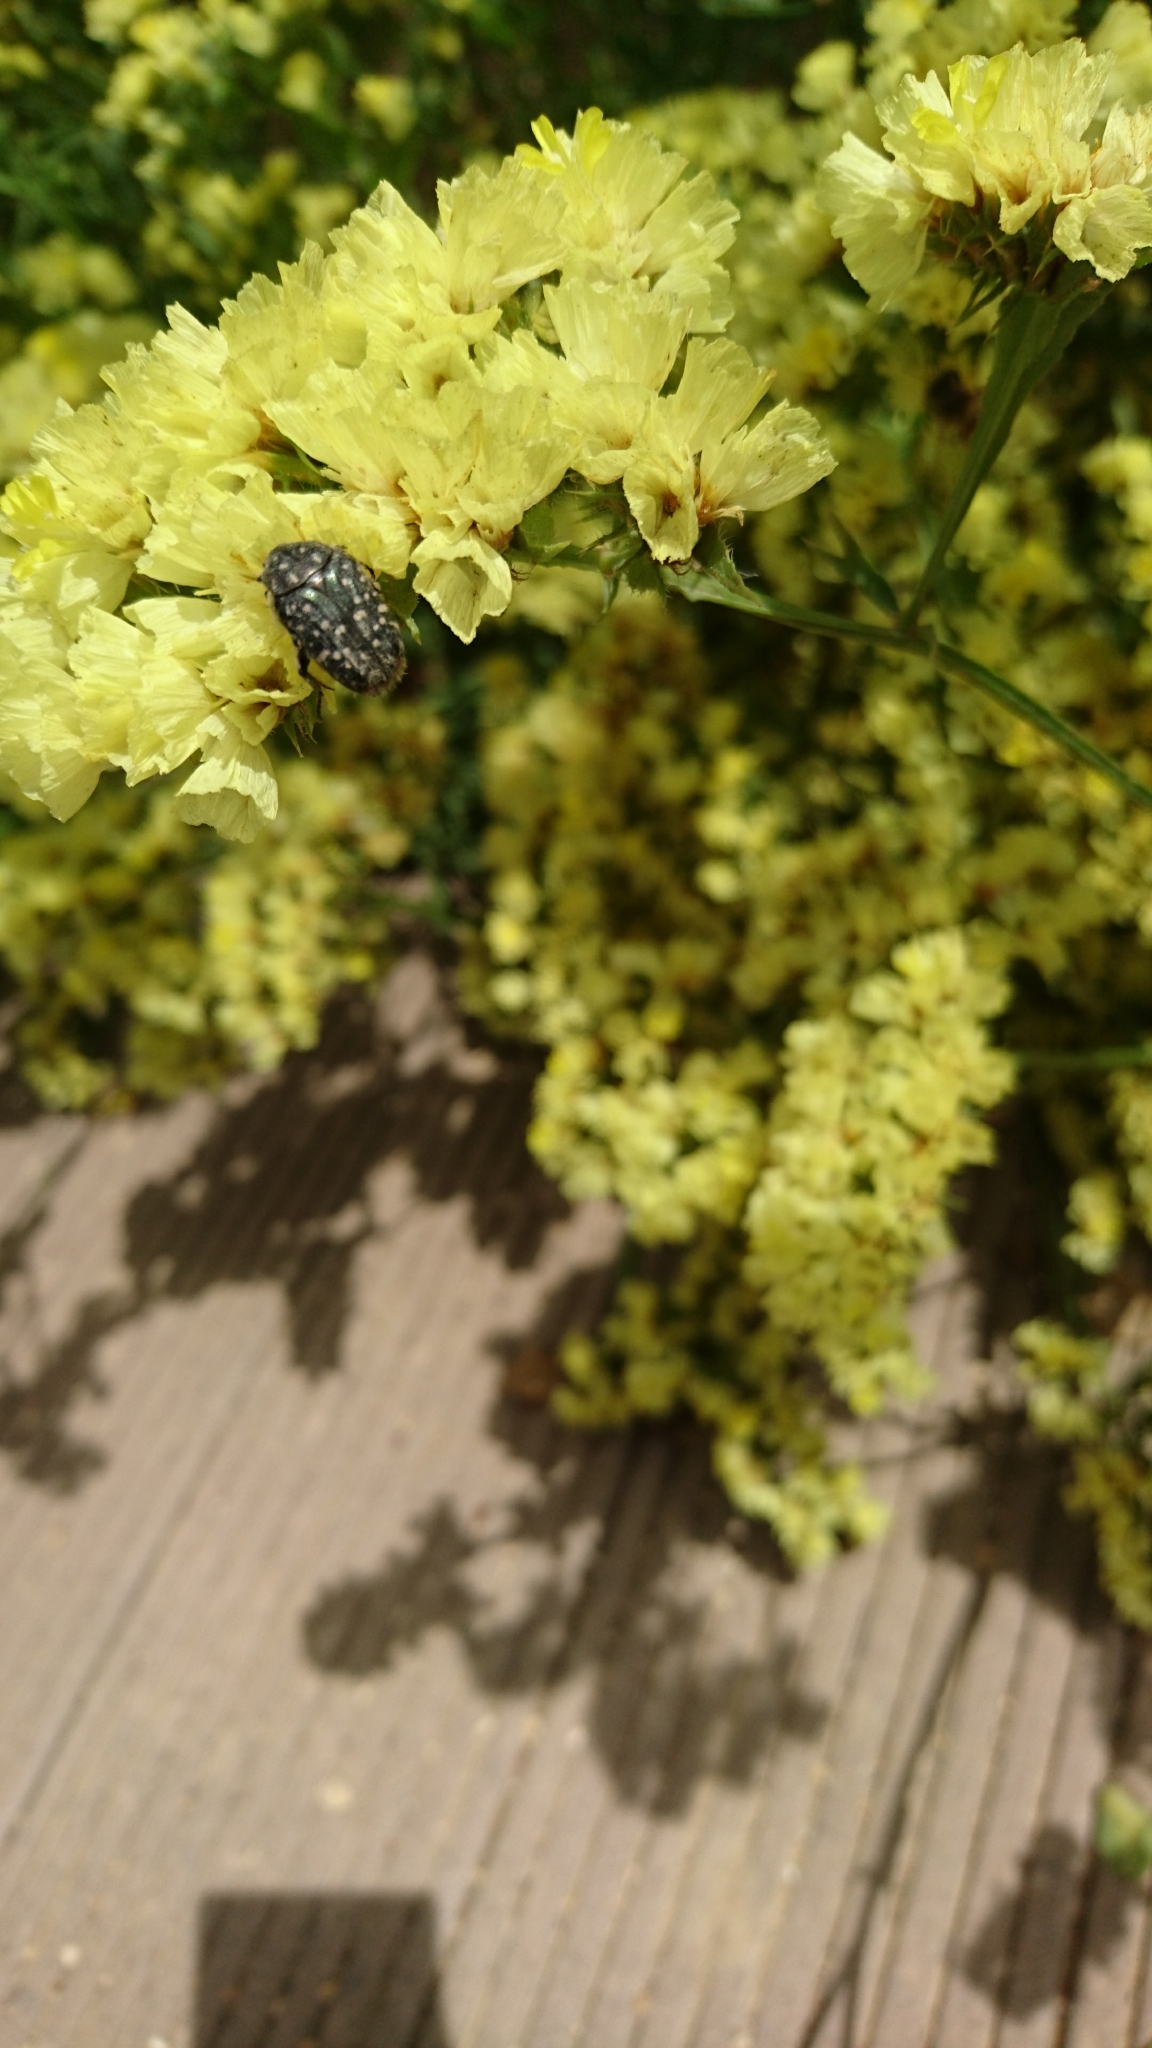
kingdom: Animalia
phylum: Arthropoda
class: Insecta
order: Coleoptera
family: Scarabaeidae
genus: Oxythyrea
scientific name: Oxythyrea funesta
